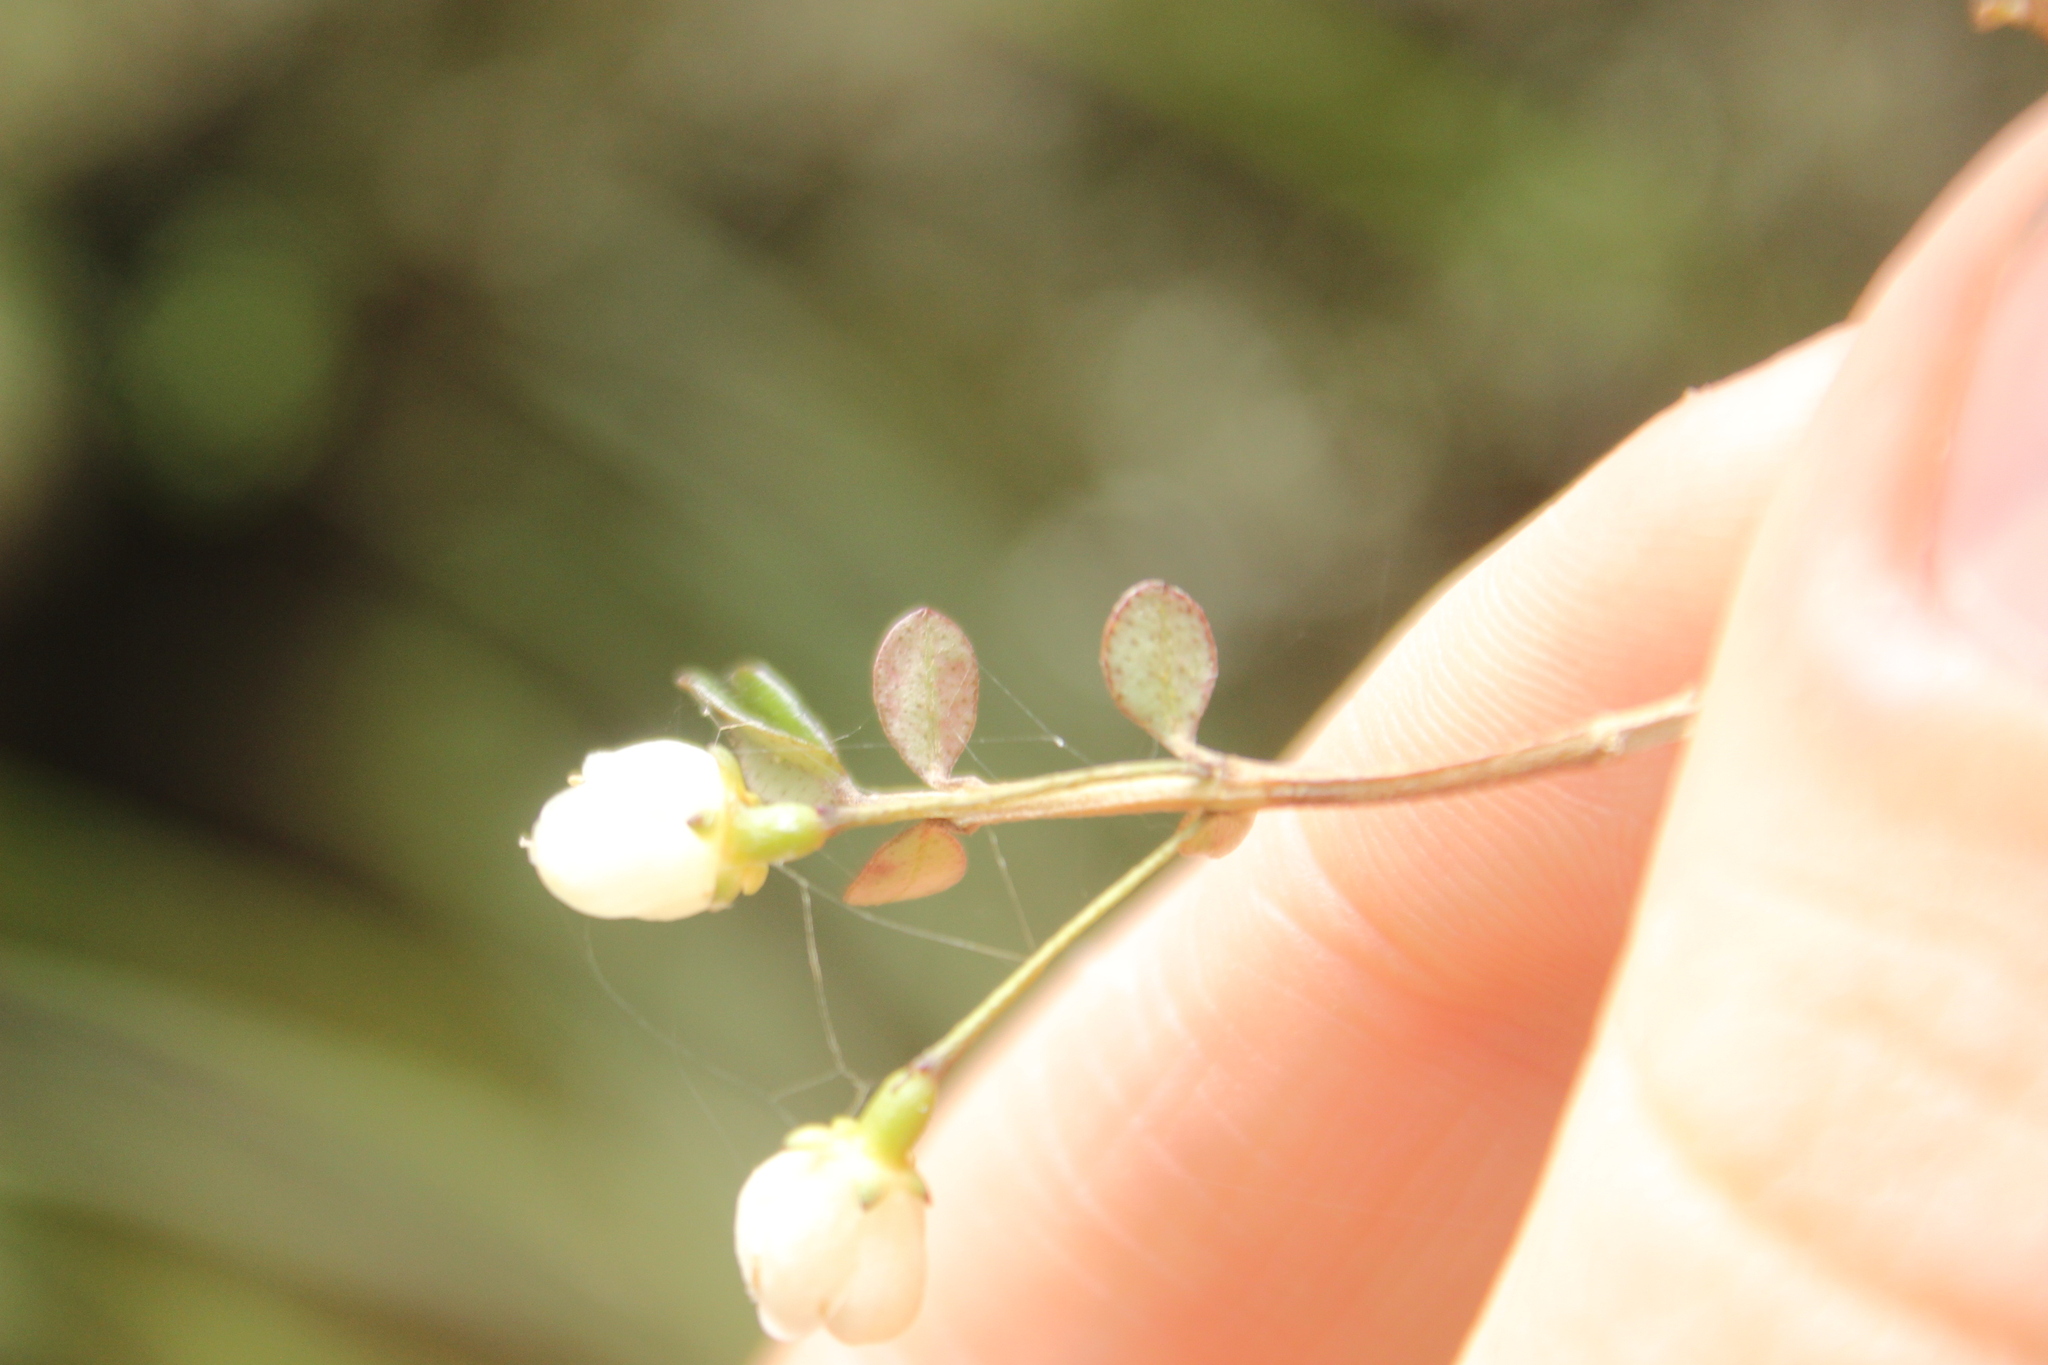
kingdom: Plantae
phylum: Tracheophyta
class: Magnoliopsida
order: Myrtales
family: Myrtaceae
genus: Neomyrtus
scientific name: Neomyrtus pedunculata
